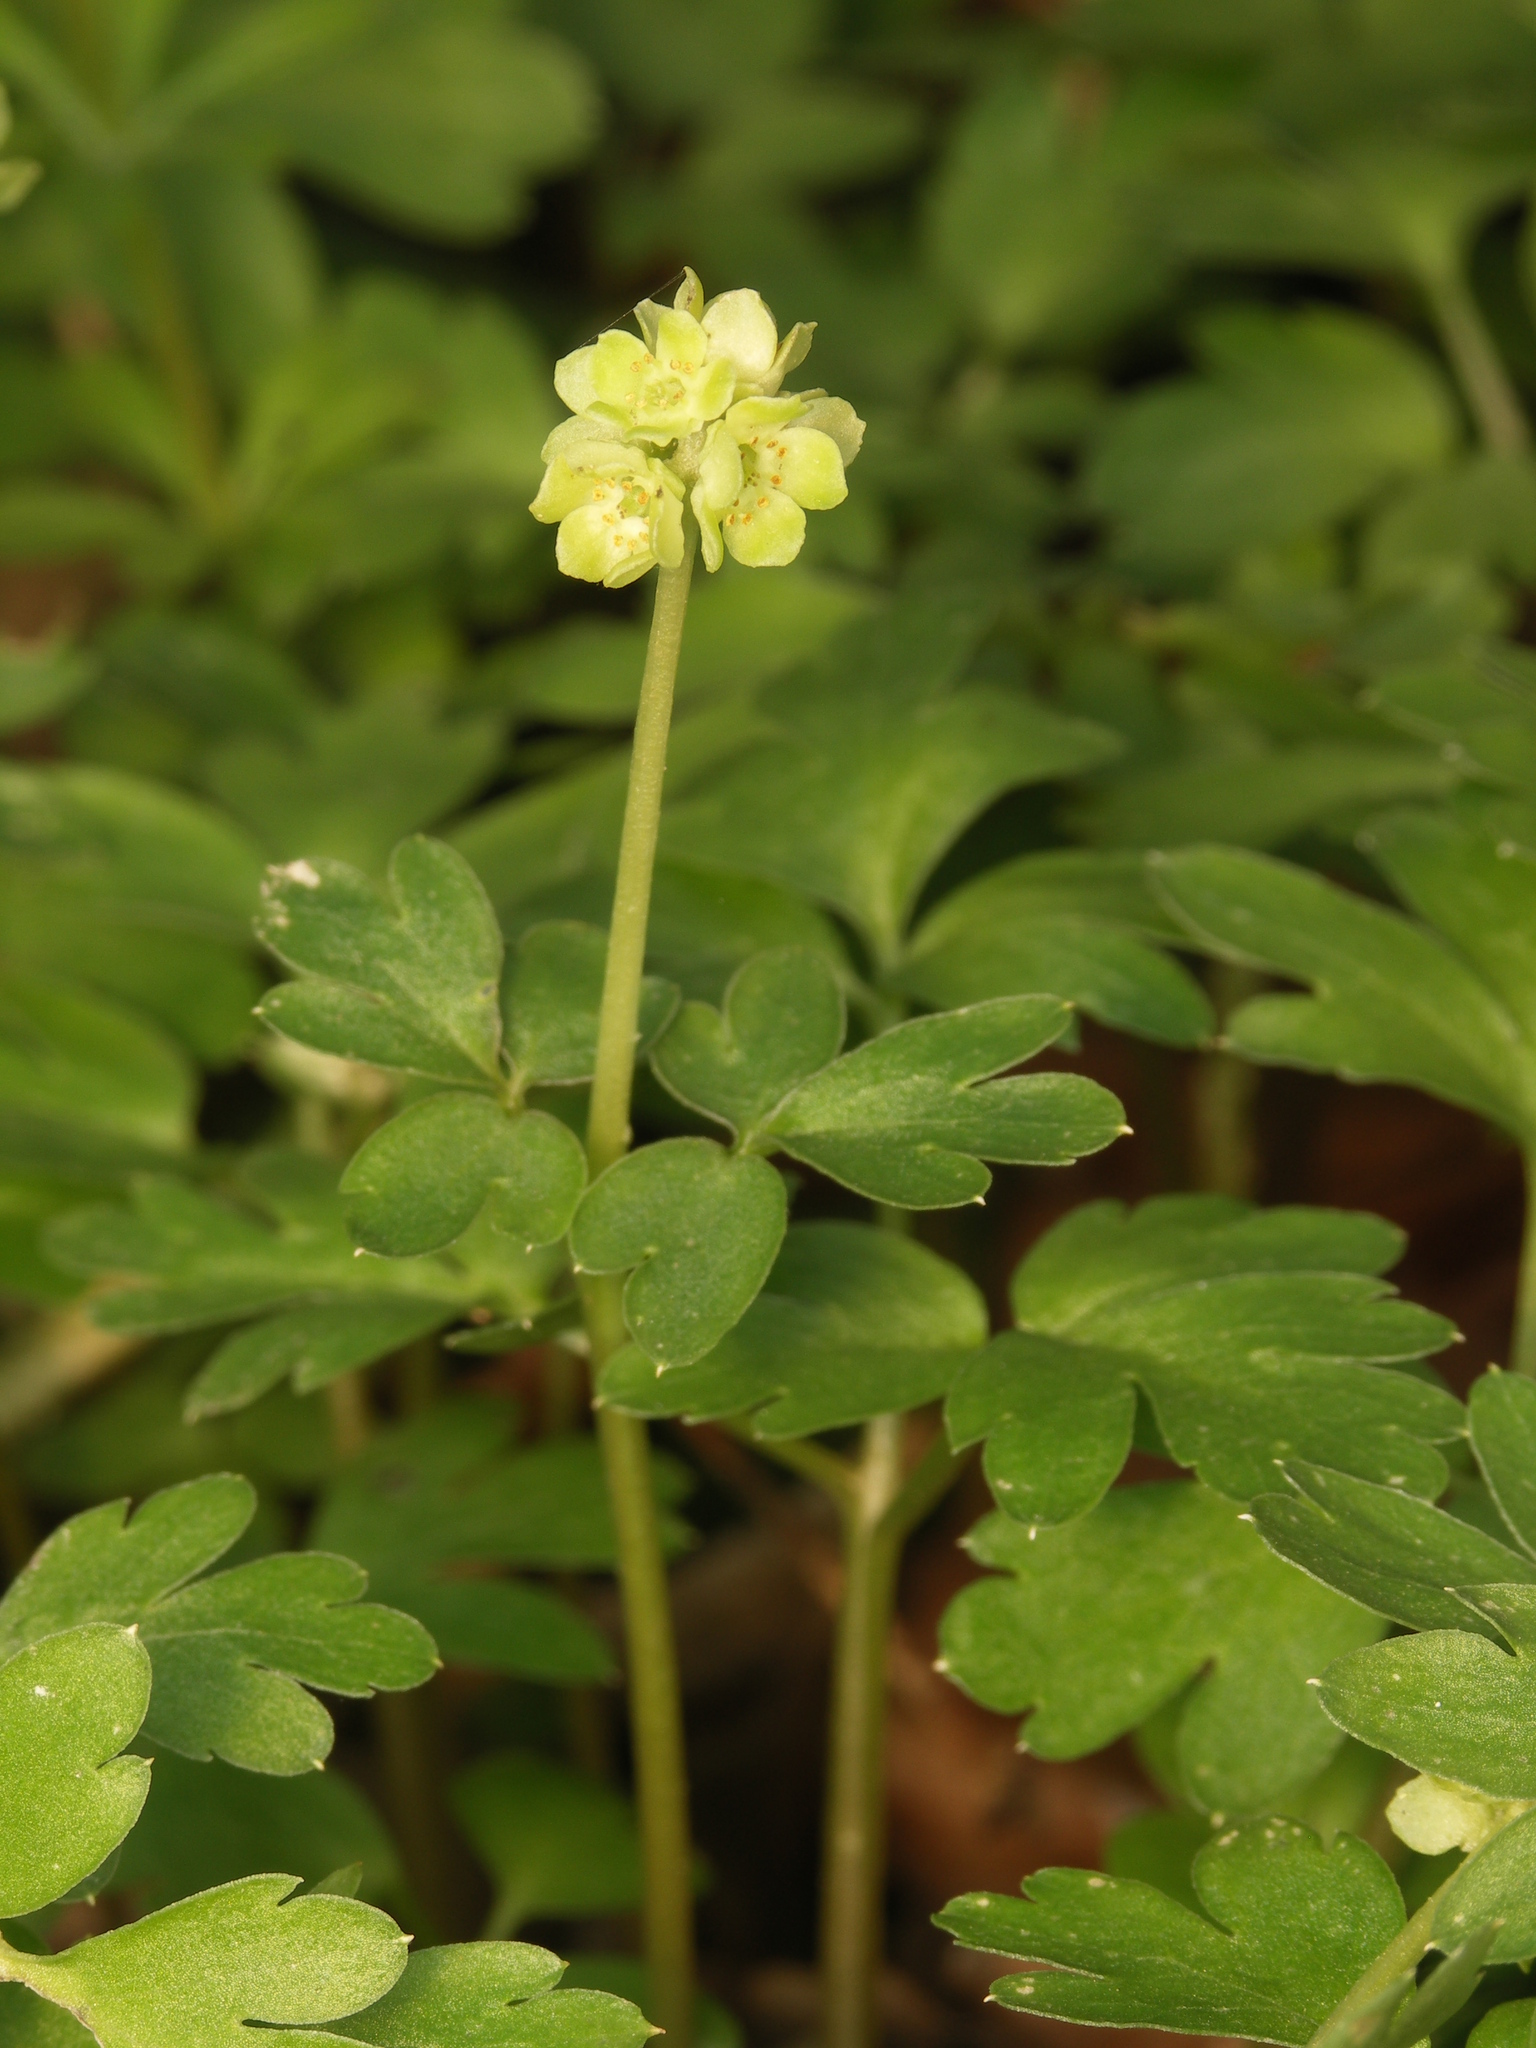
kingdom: Plantae
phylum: Tracheophyta
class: Magnoliopsida
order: Dipsacales
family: Viburnaceae
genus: Adoxa
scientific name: Adoxa moschatellina
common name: Moschatel
